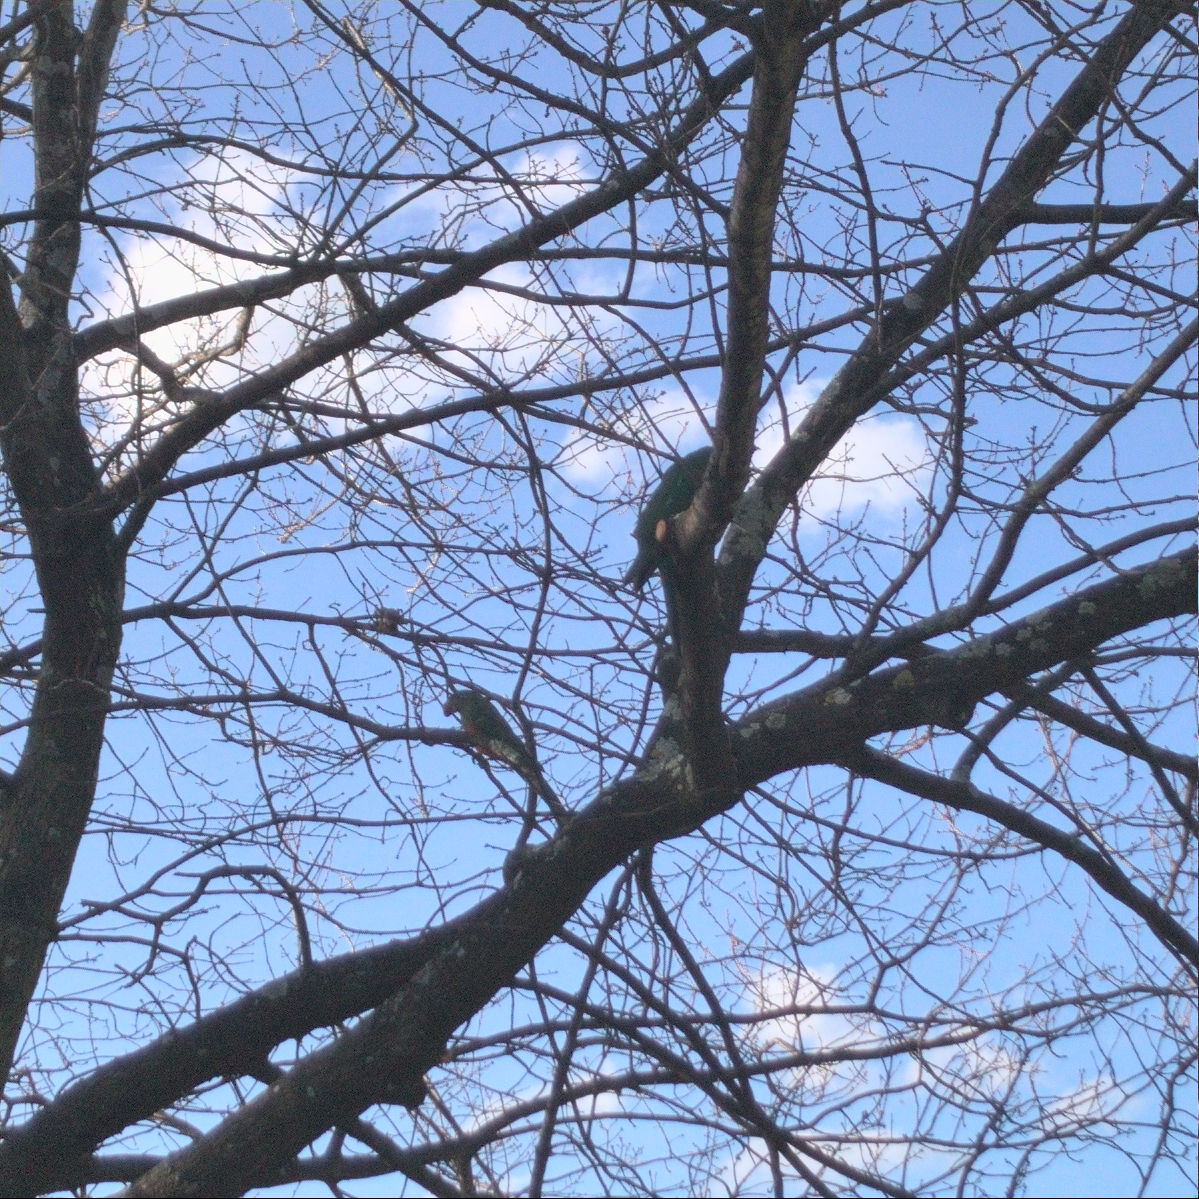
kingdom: Animalia
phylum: Chordata
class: Aves
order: Psittaciformes
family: Psittacidae
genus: Alisterus
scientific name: Alisterus scapularis
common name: Australian king parrot
